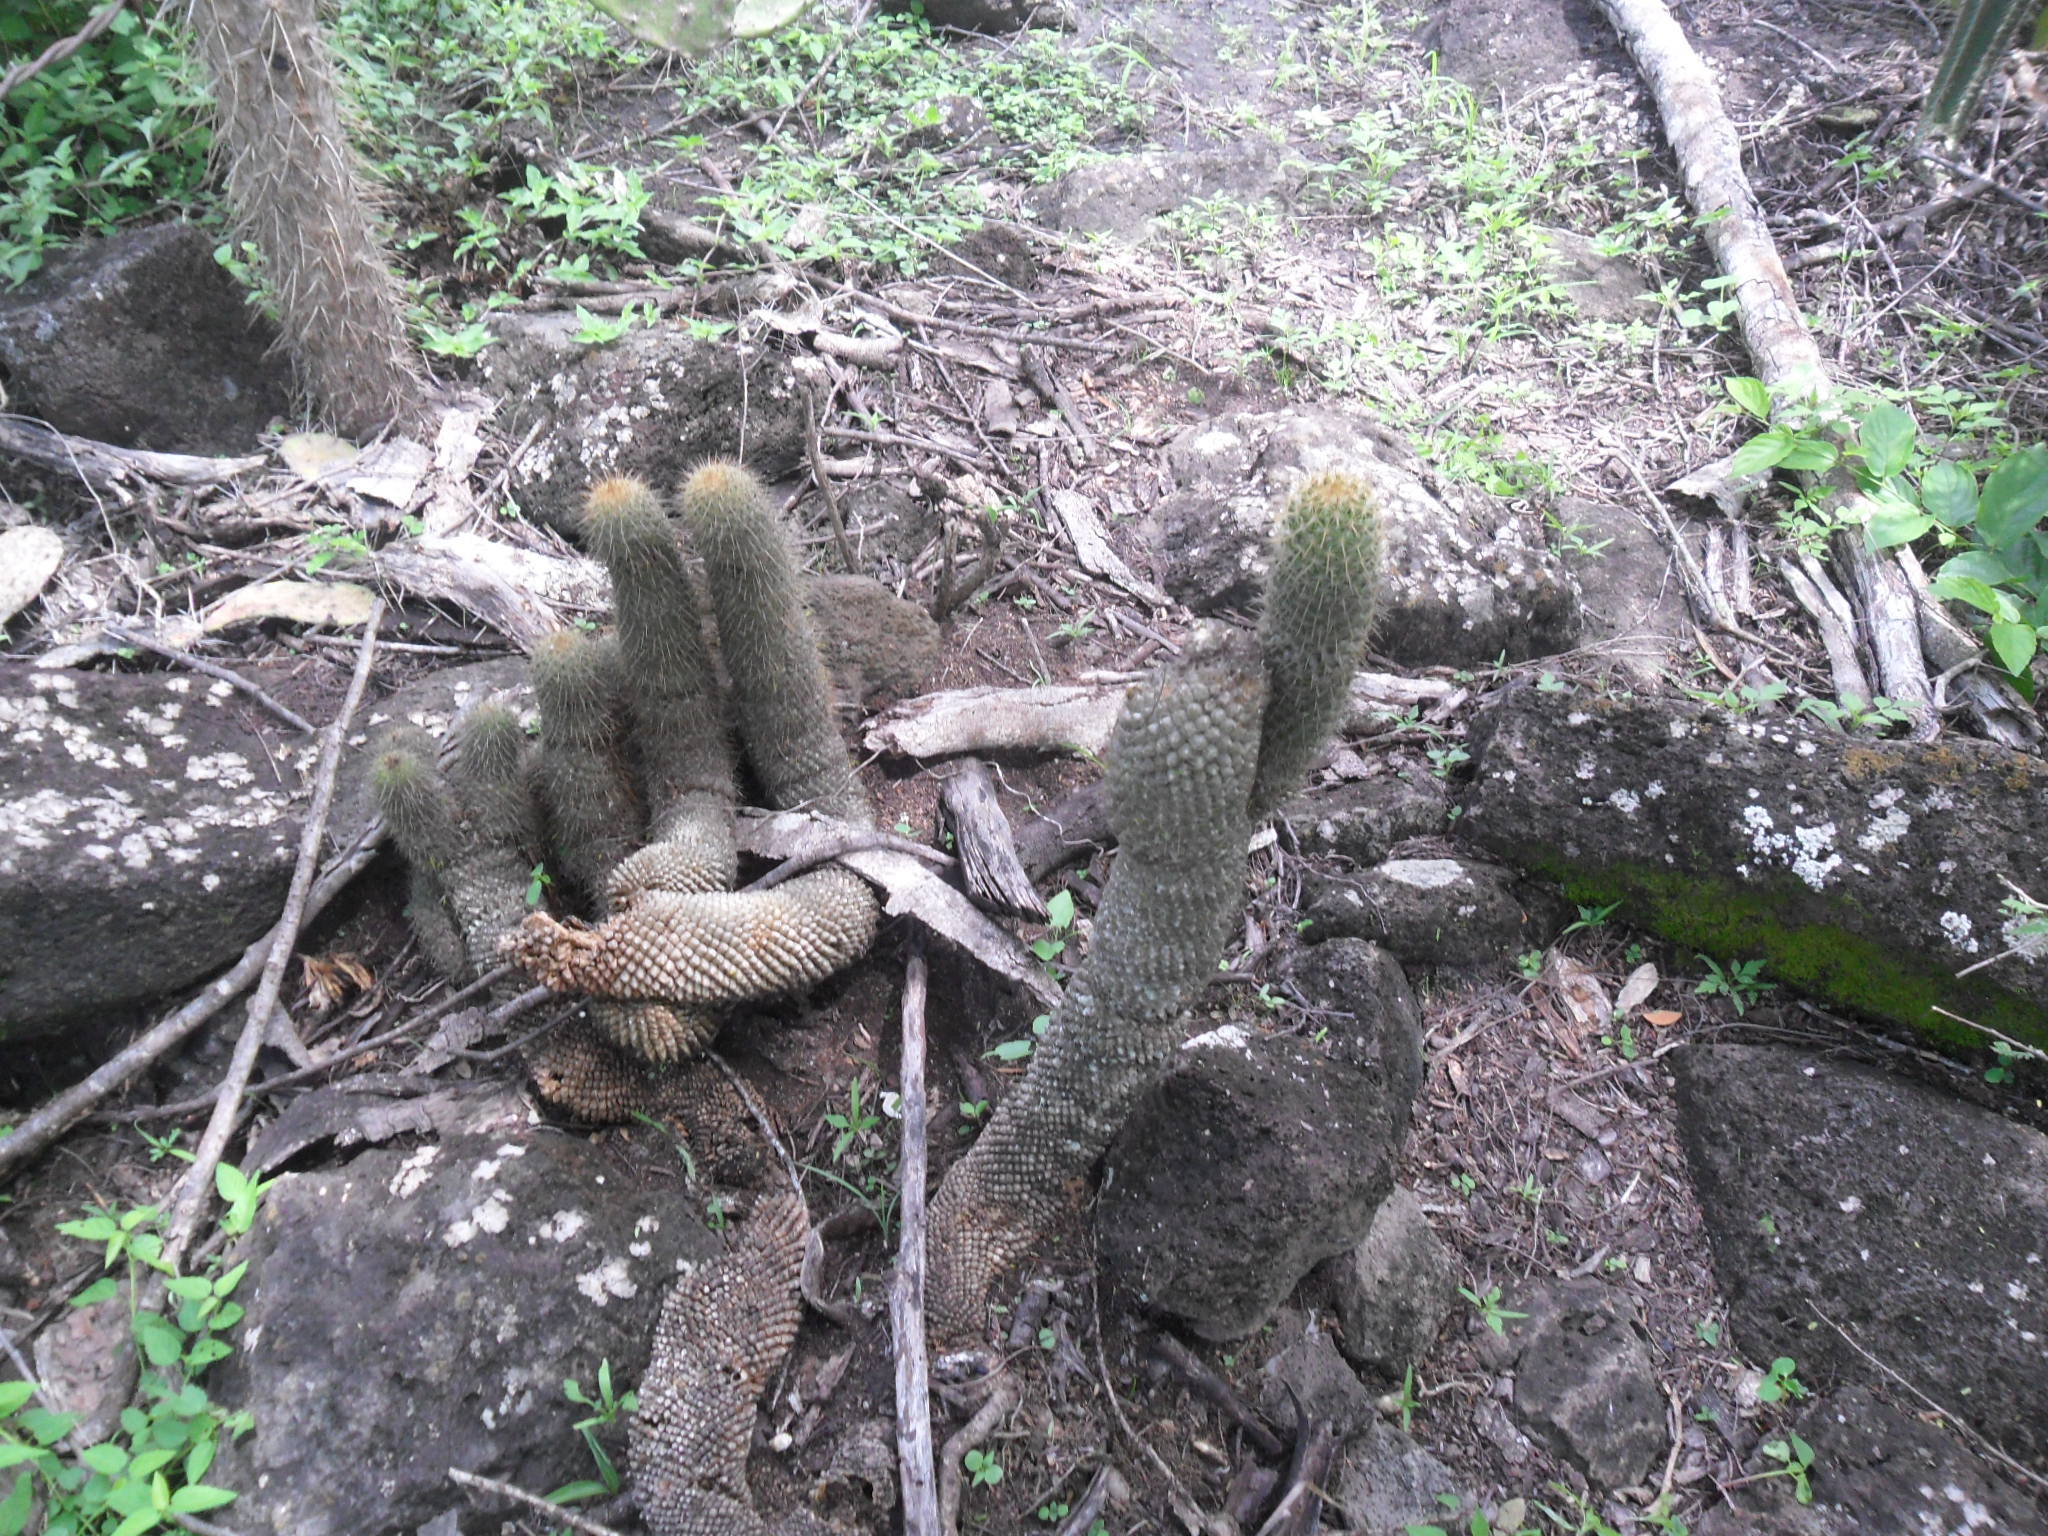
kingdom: Plantae
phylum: Tracheophyta
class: Magnoliopsida
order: Caryophyllales
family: Cactaceae
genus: Mammillaria
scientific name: Mammillaria eriacantha
